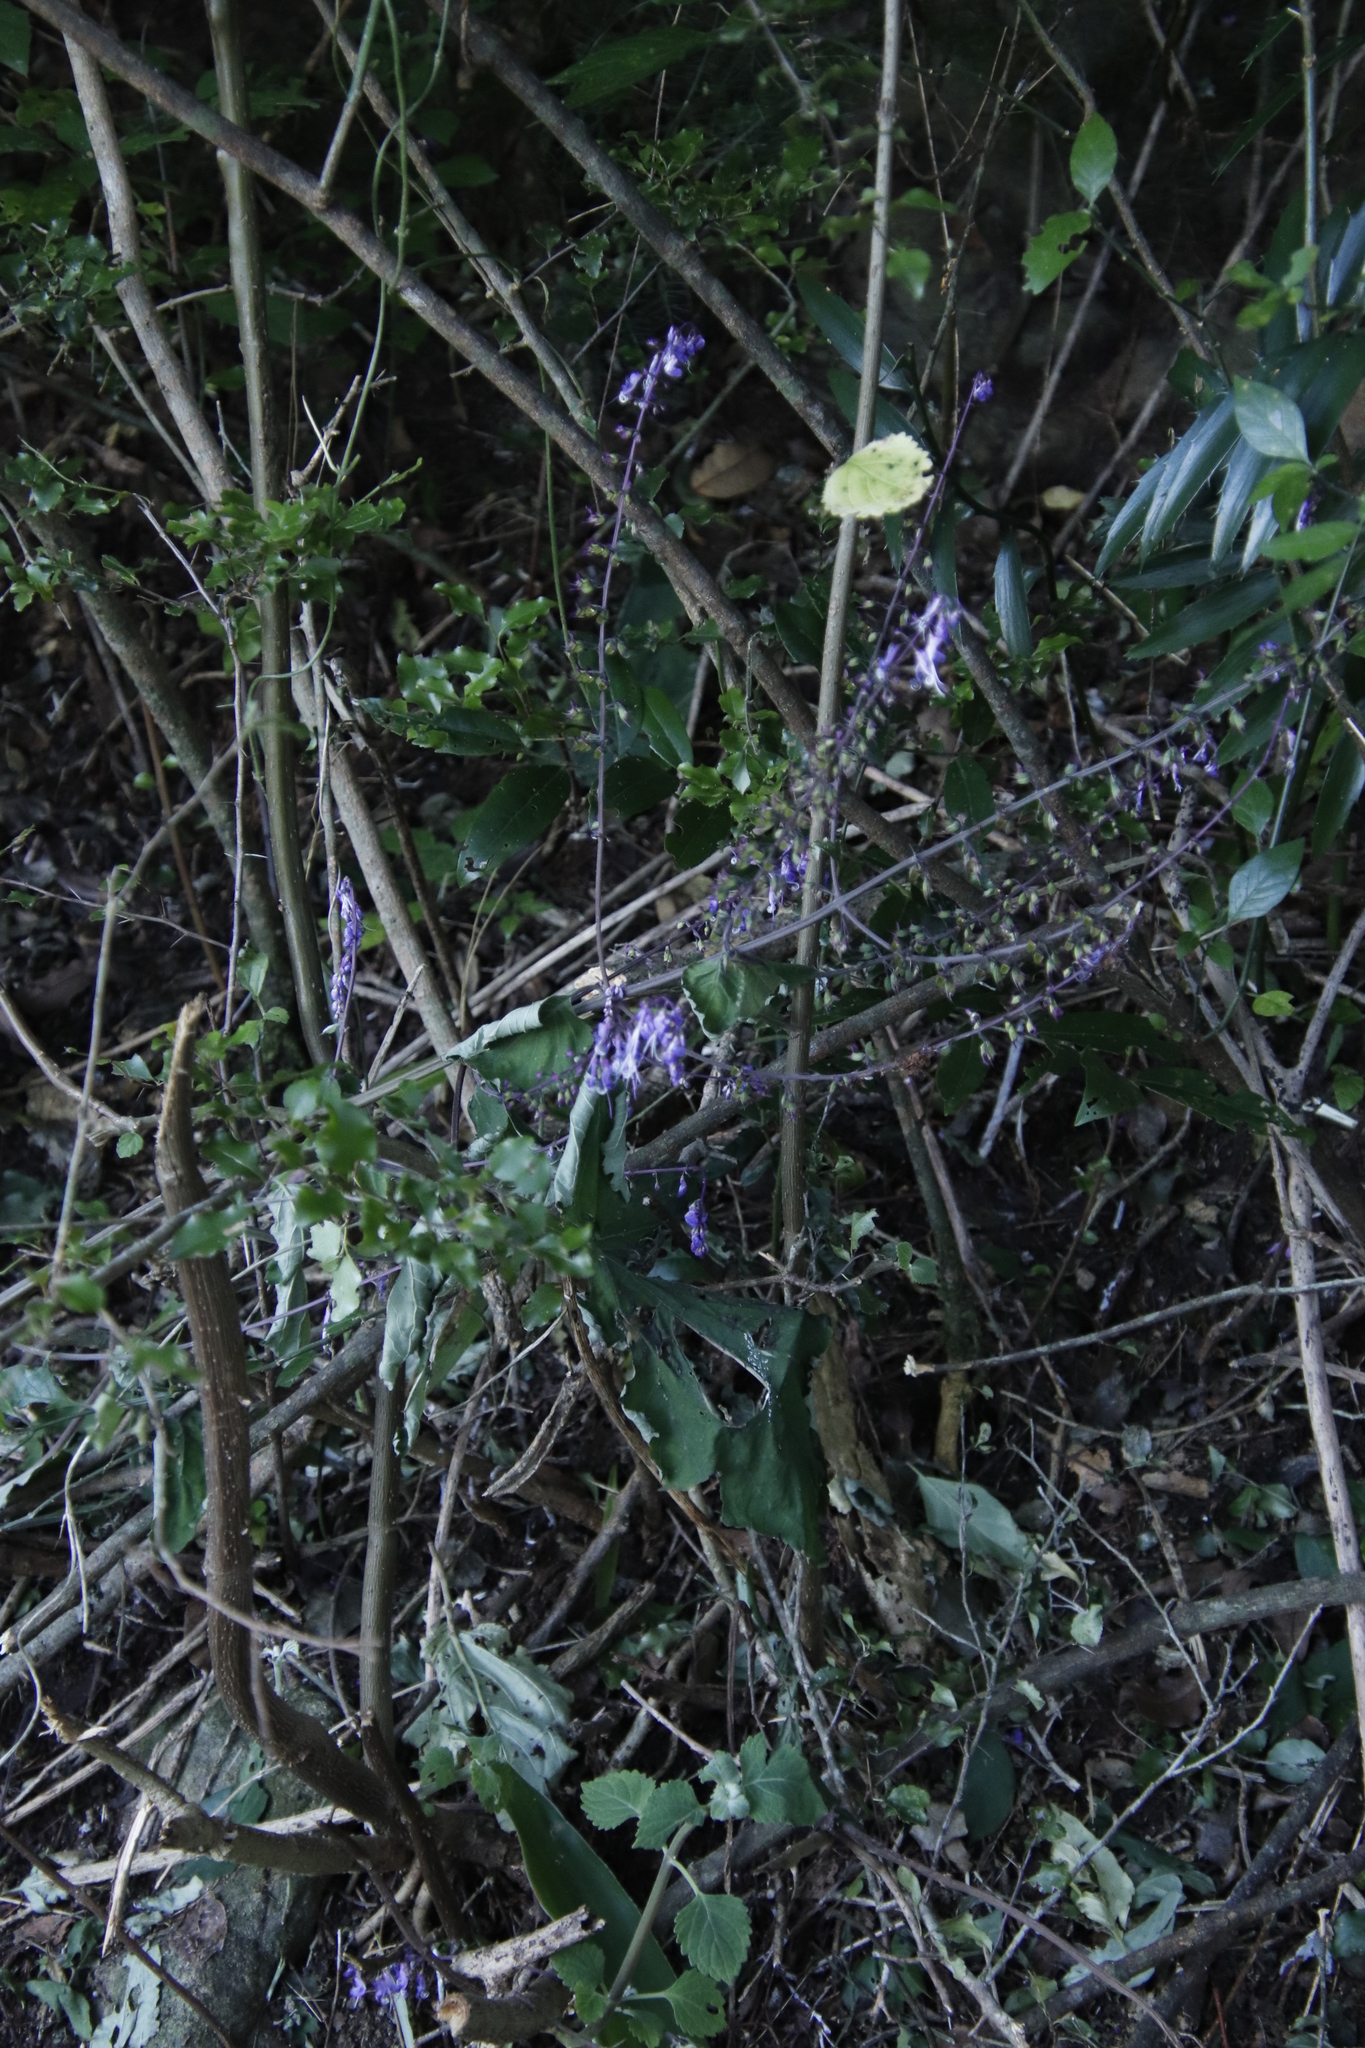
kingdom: Plantae
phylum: Tracheophyta
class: Magnoliopsida
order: Lamiales
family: Lamiaceae
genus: Plectranthus
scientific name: Plectranthus fruticosus
